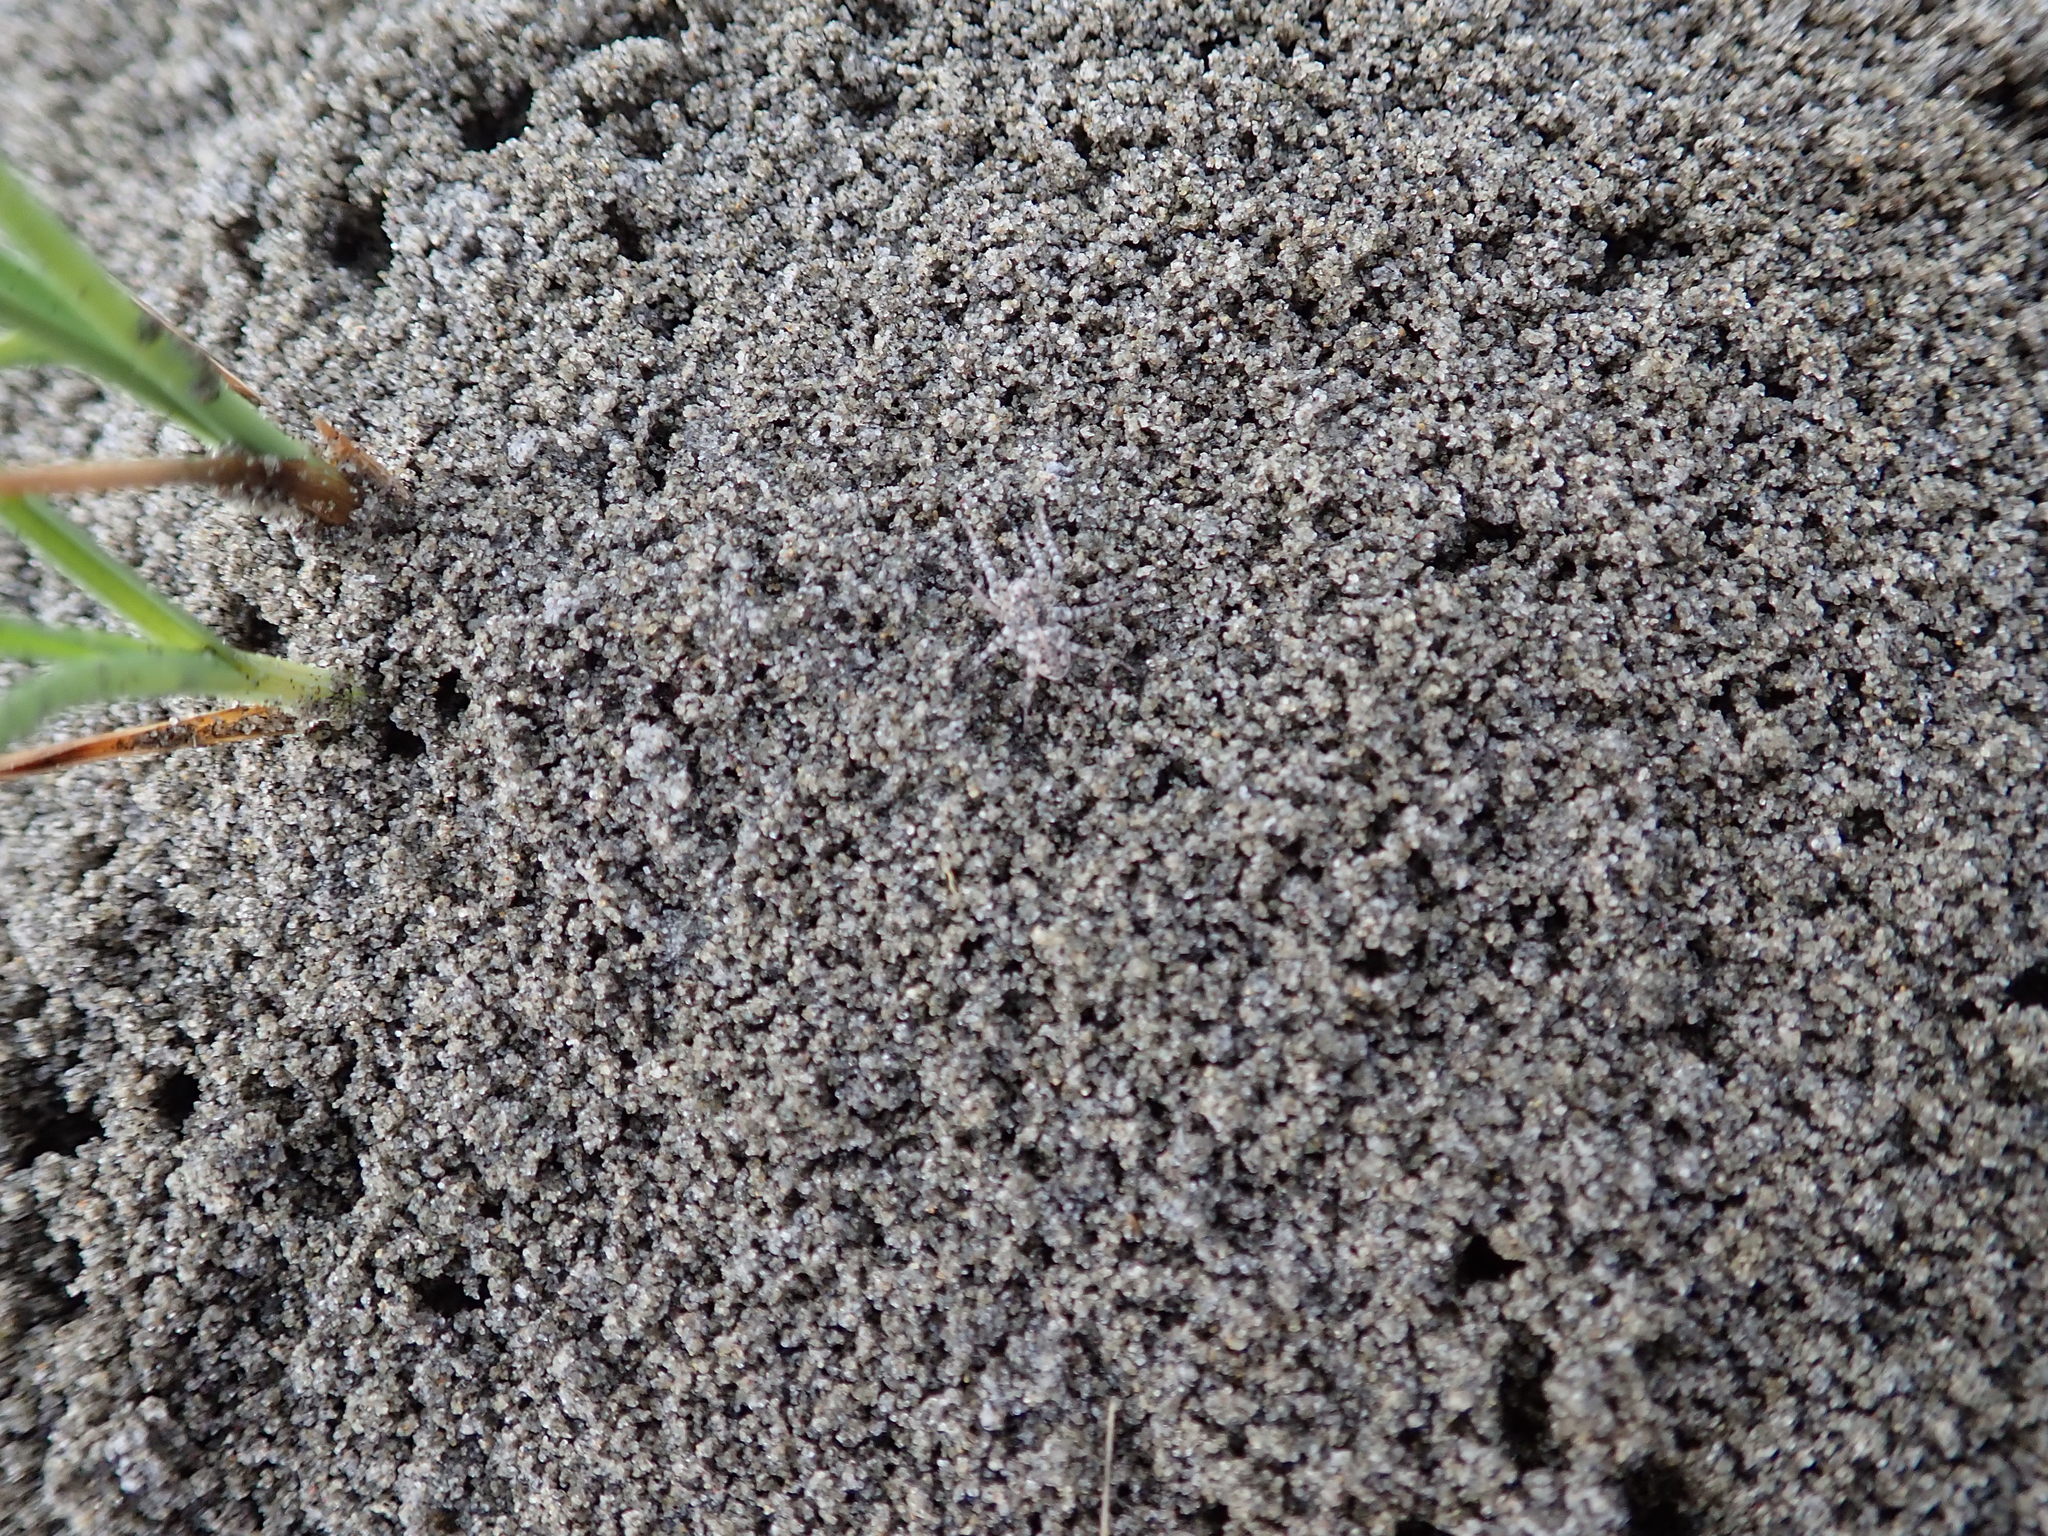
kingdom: Animalia
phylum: Arthropoda
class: Arachnida
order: Araneae
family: Lycosidae
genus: Anoteropsis
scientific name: Anoteropsis litoralis
